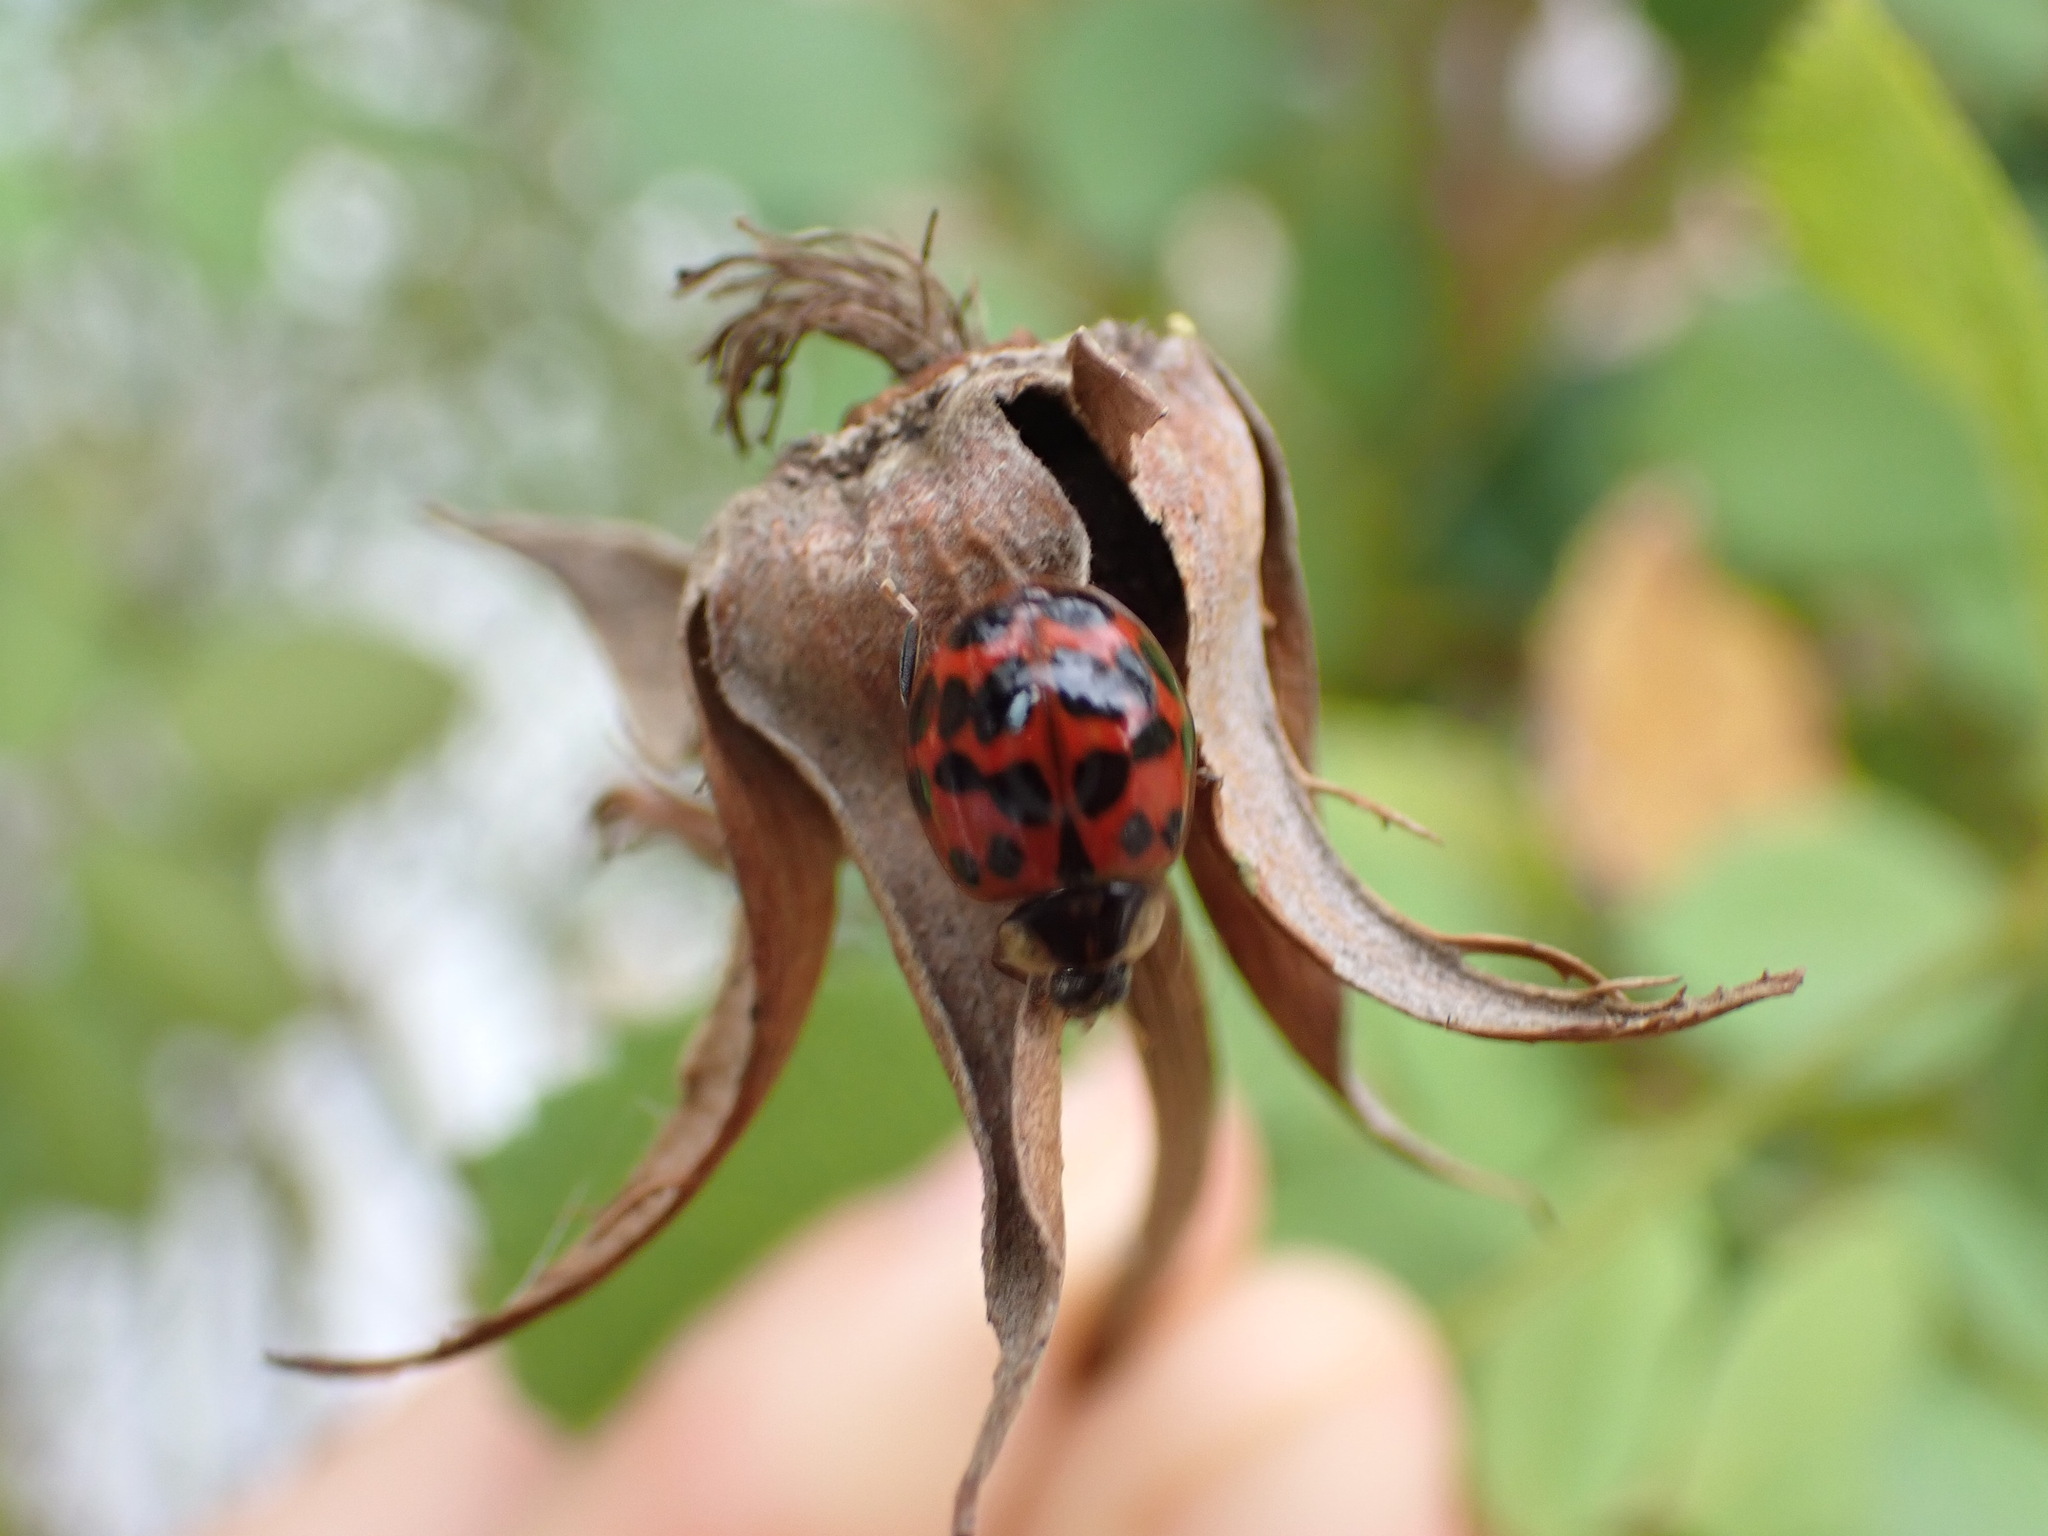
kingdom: Animalia
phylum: Arthropoda
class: Insecta
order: Coleoptera
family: Coccinellidae
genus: Harmonia
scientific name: Harmonia axyridis
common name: Harlequin ladybird
